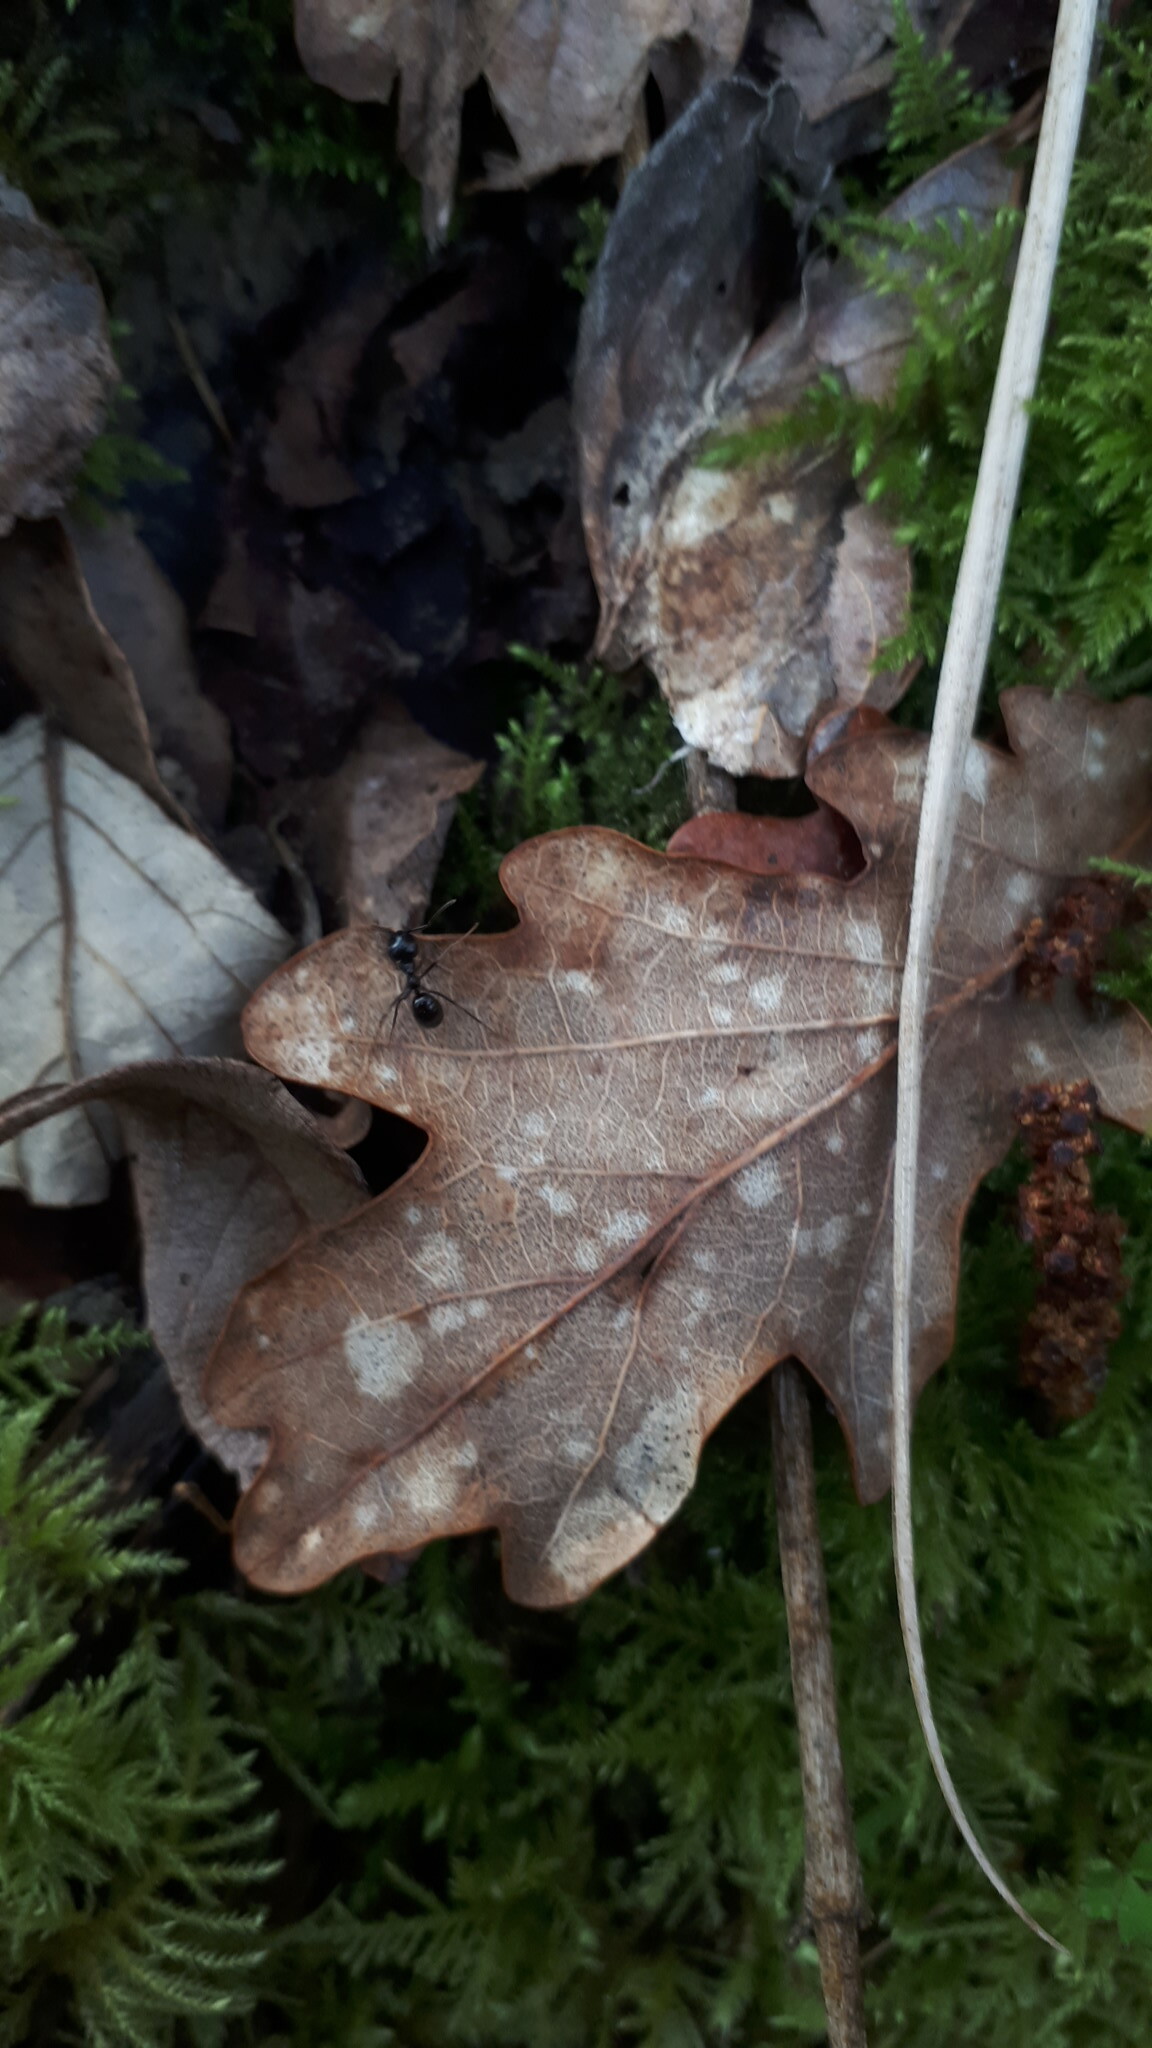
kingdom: Animalia
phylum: Arthropoda
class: Insecta
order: Hymenoptera
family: Formicidae
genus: Lasius
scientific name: Lasius fuliginosus
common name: Jet ant
